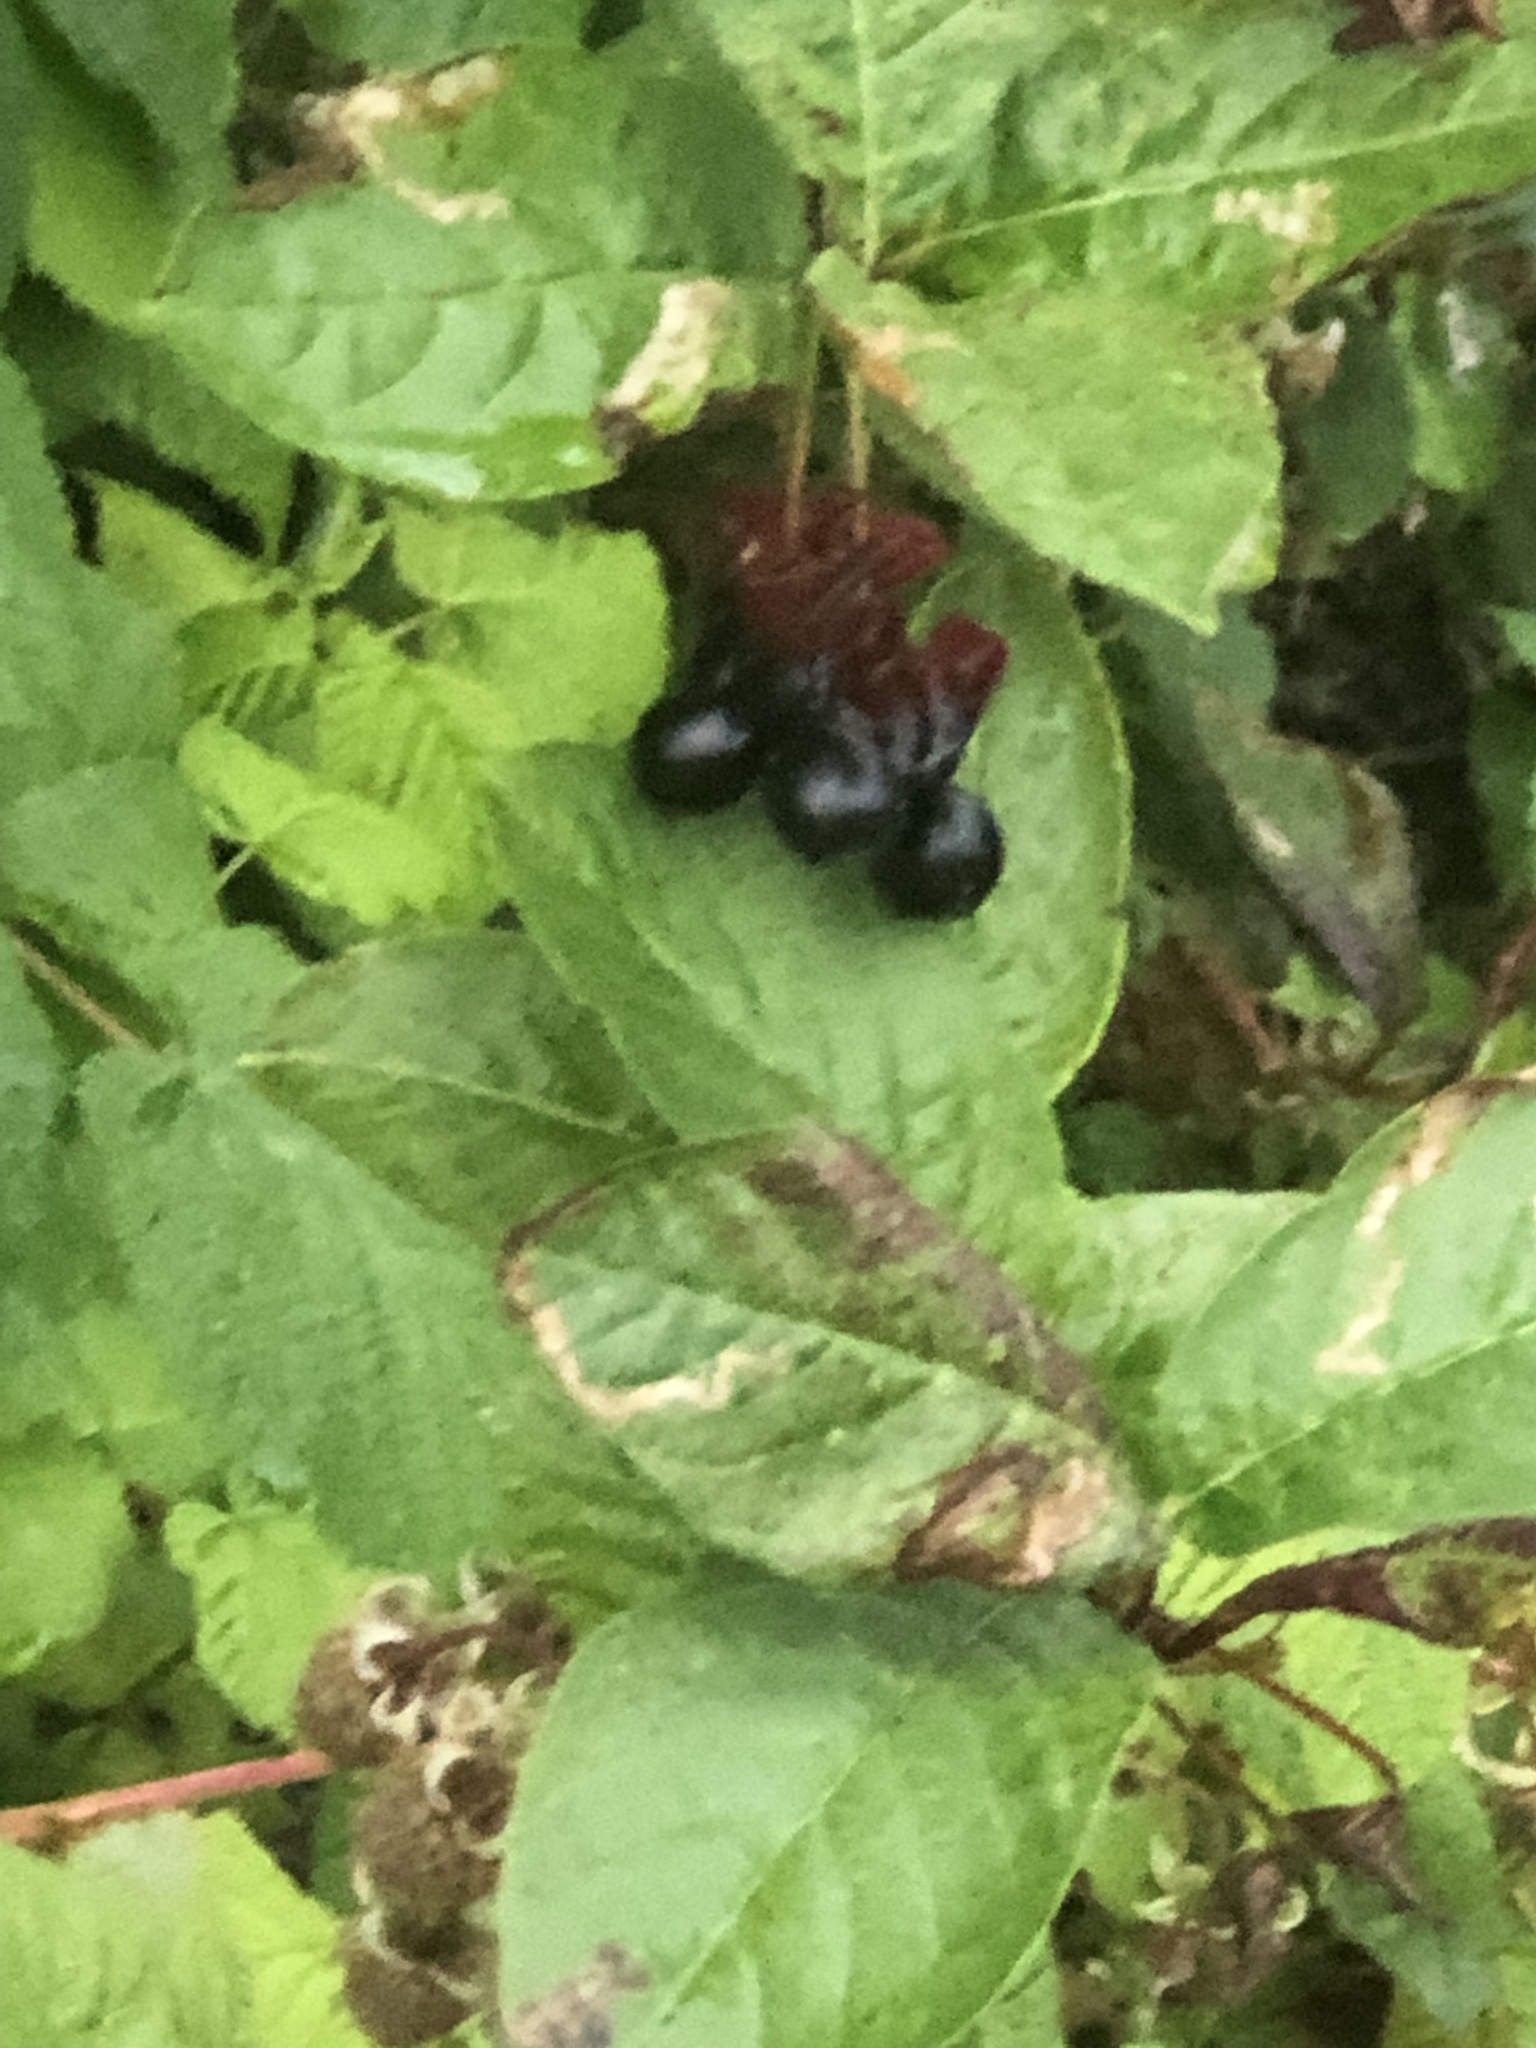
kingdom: Plantae
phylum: Tracheophyta
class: Magnoliopsida
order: Dipsacales
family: Caprifoliaceae
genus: Lonicera
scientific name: Lonicera involucrata
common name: Californian honeysuckle
